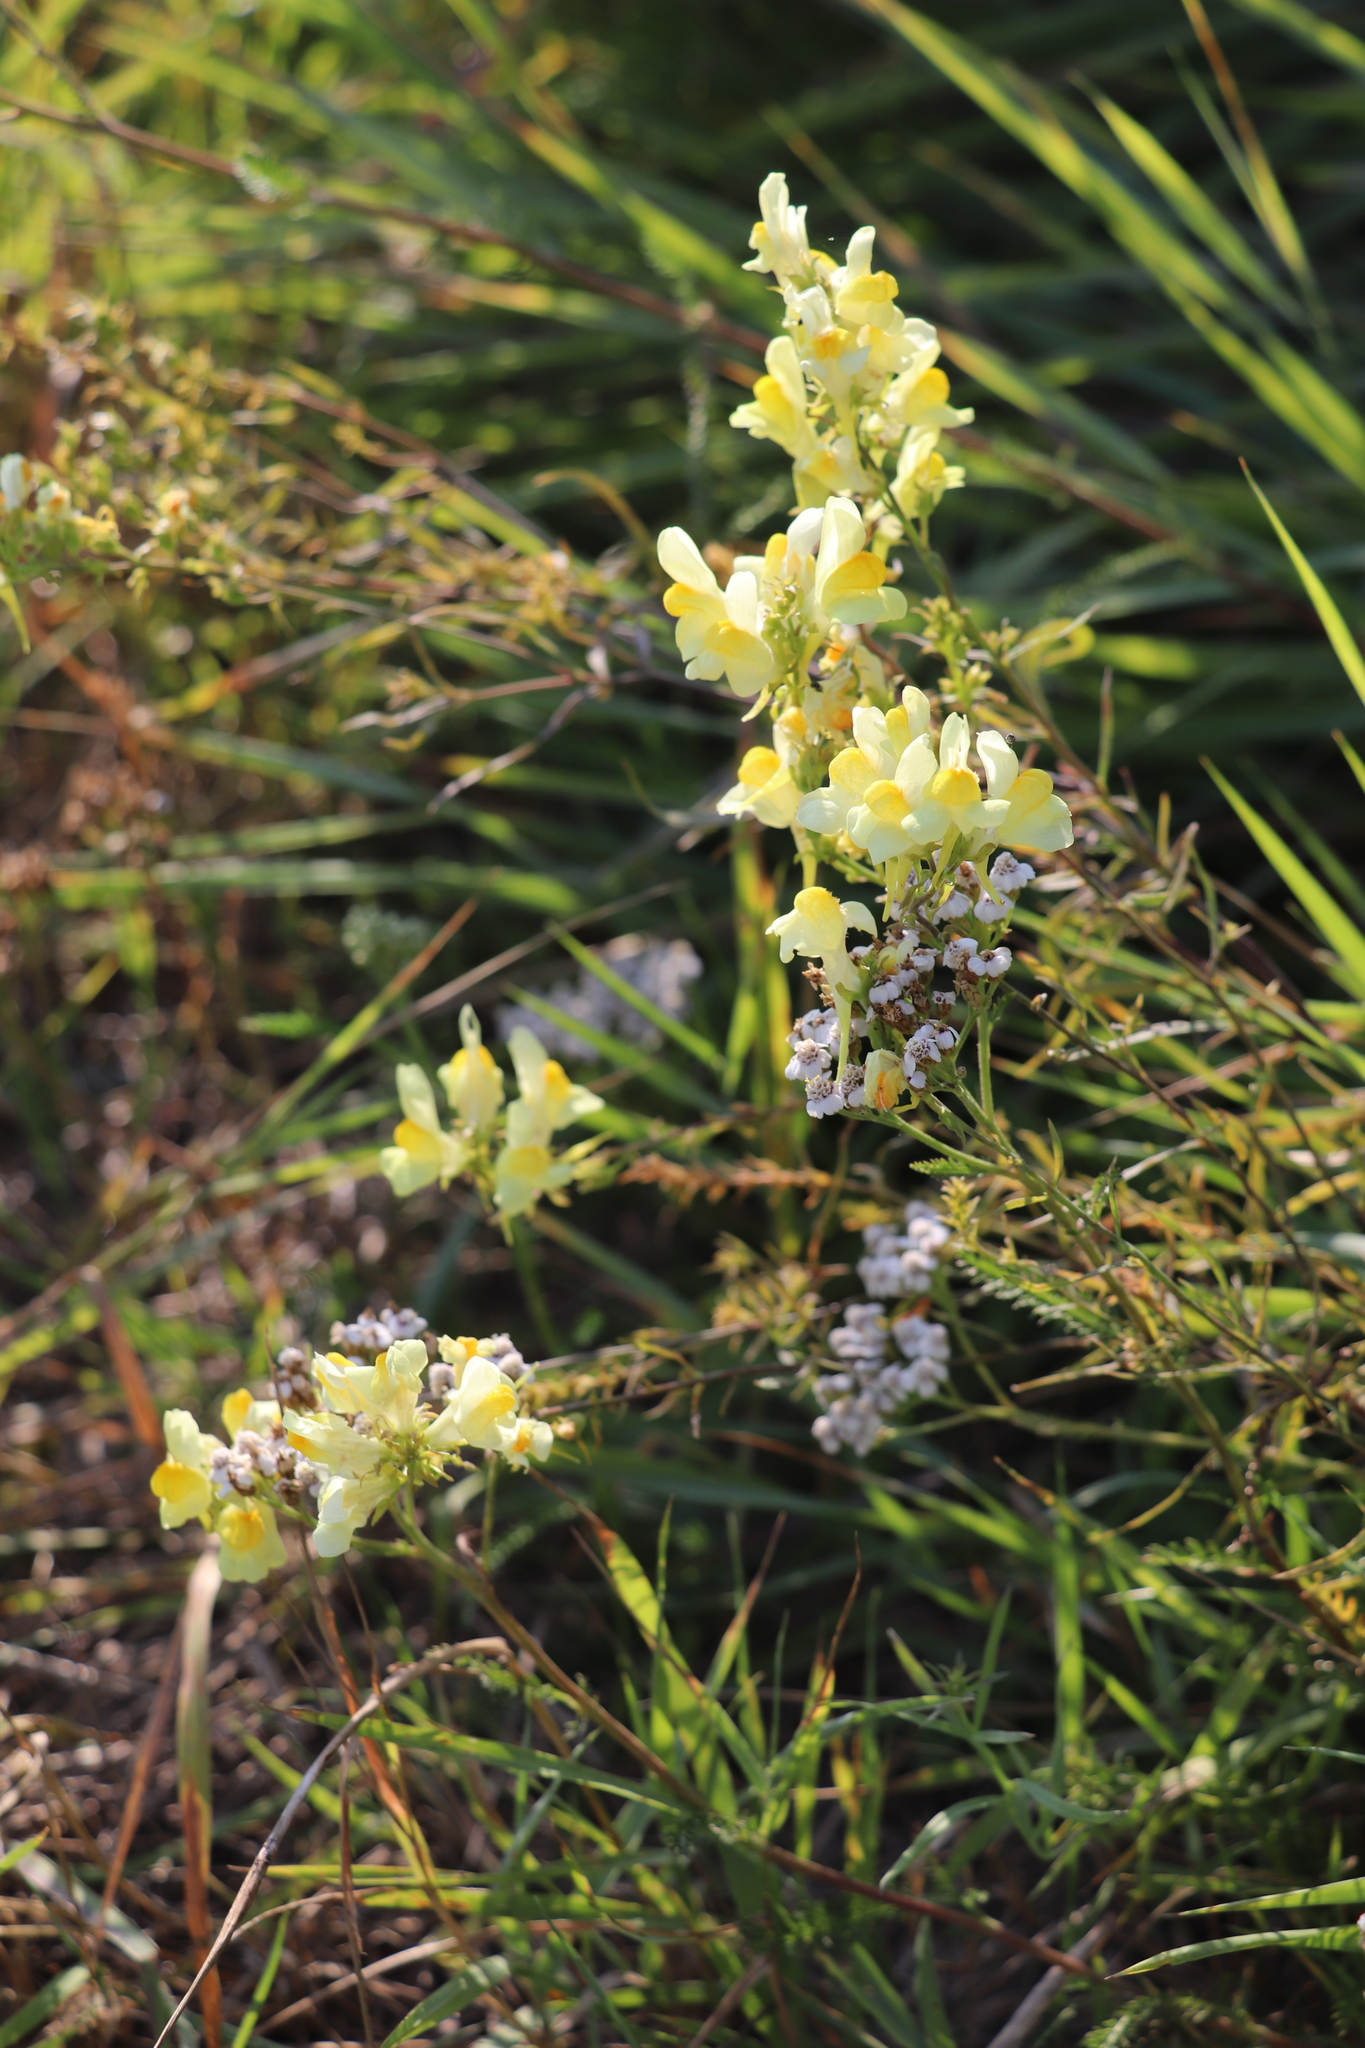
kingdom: Plantae
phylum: Tracheophyta
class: Magnoliopsida
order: Lamiales
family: Plantaginaceae
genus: Linaria
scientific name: Linaria vulgaris
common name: Butter and eggs
